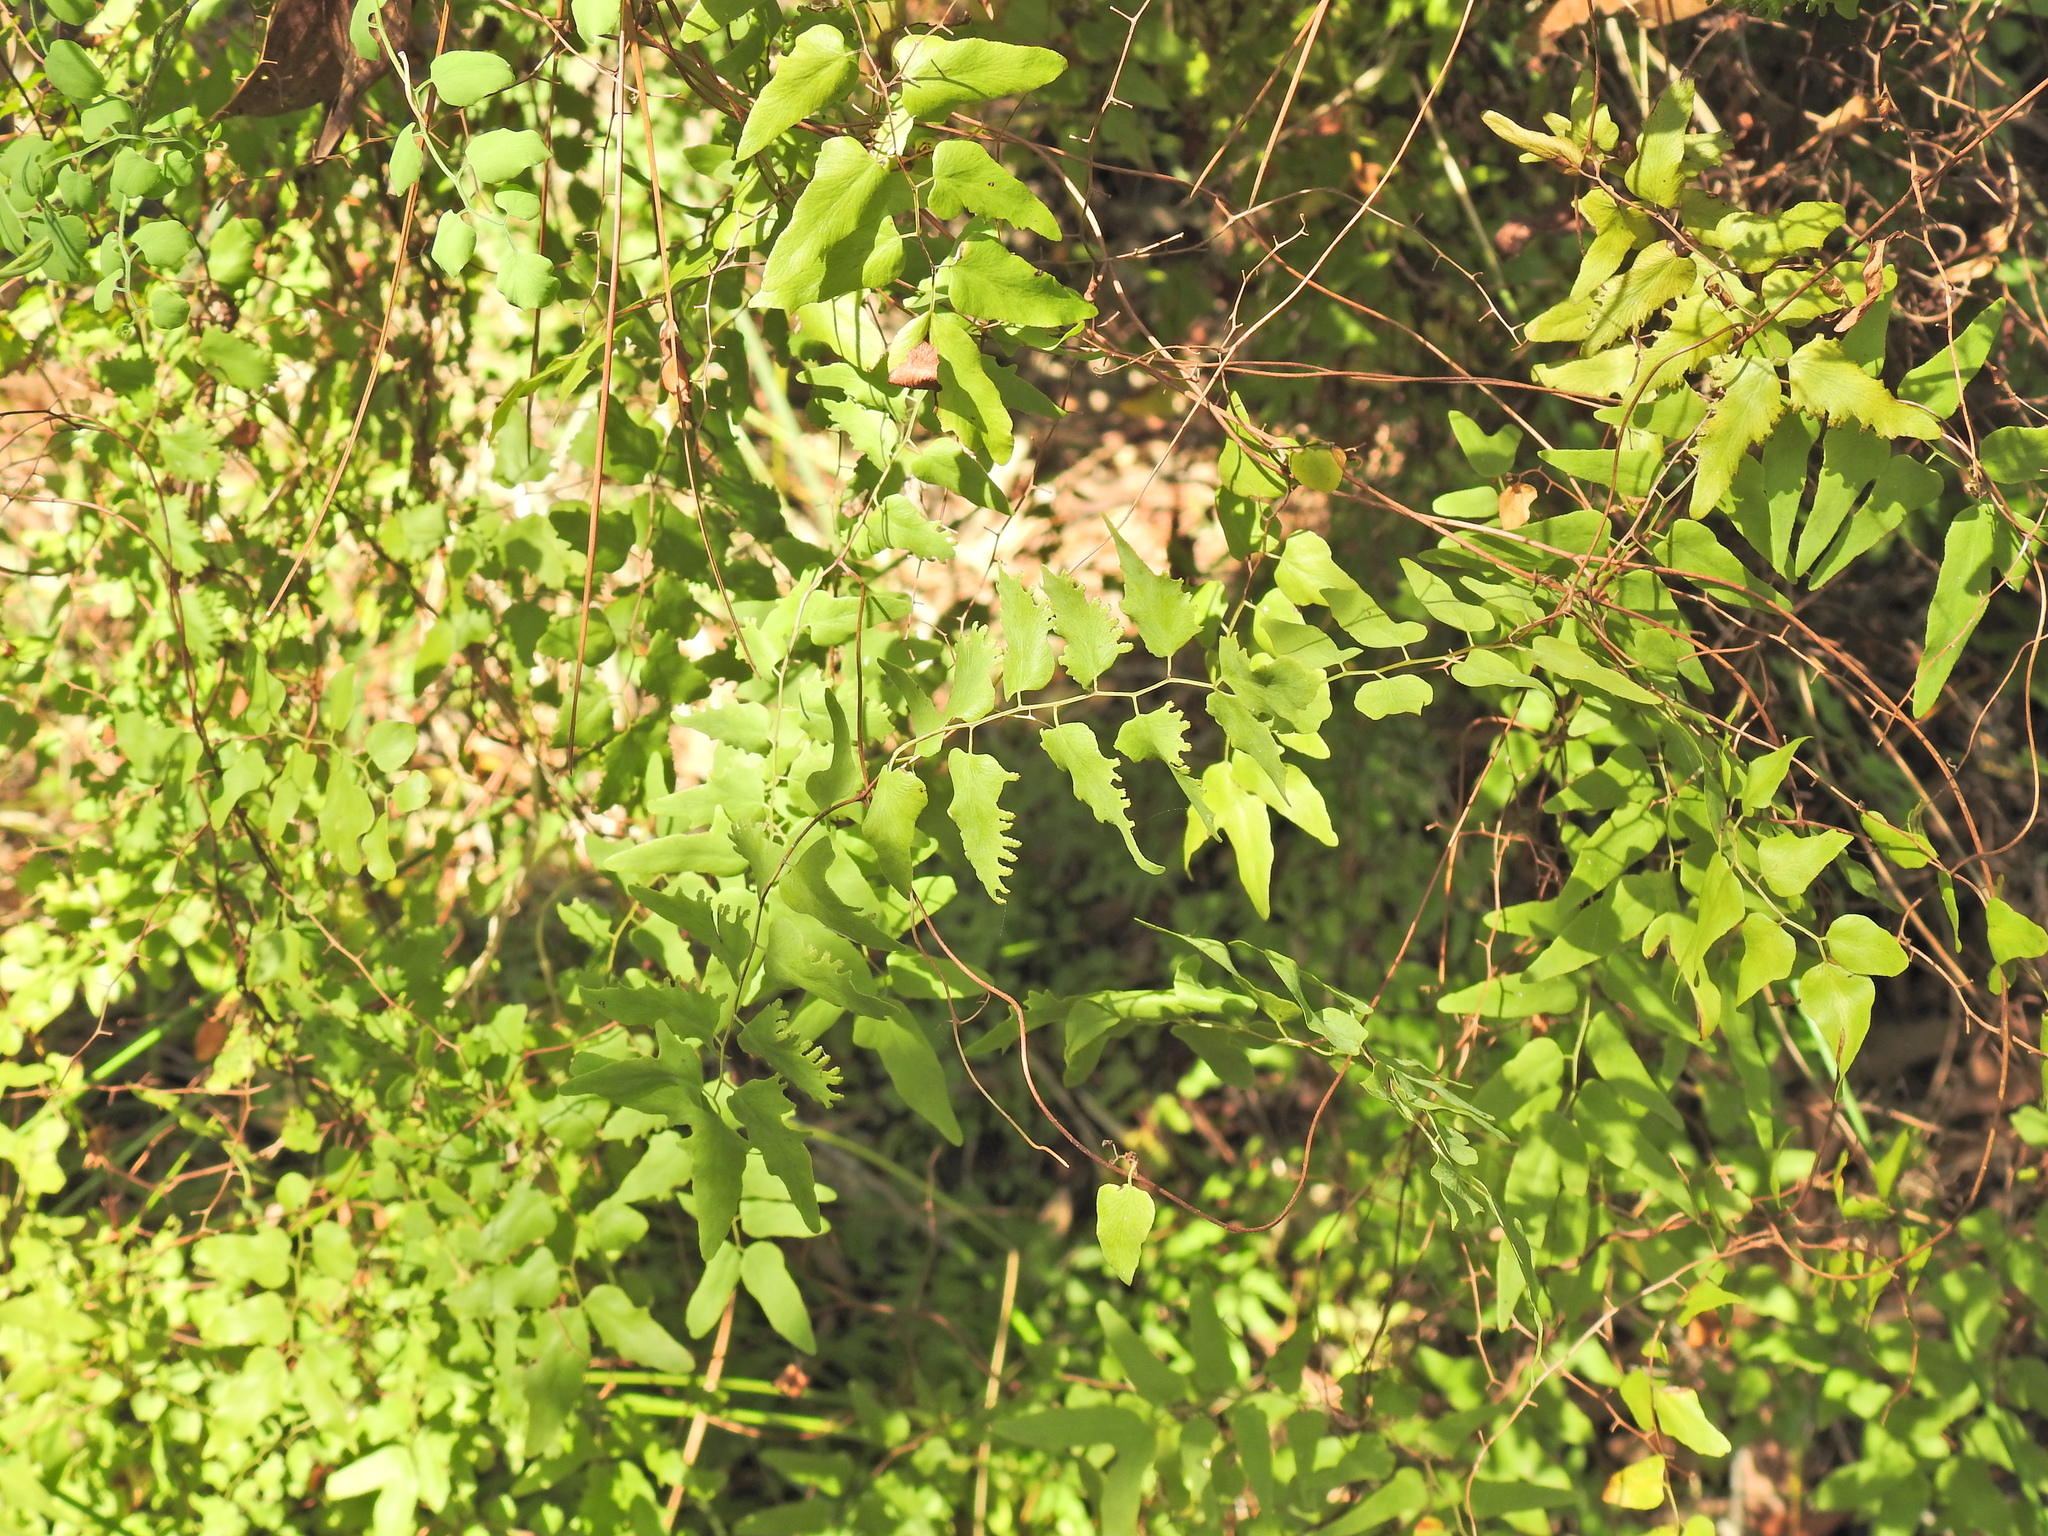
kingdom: Plantae
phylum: Tracheophyta
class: Polypodiopsida
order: Schizaeales
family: Lygodiaceae
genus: Lygodium
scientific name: Lygodium microphyllum
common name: Small-leaf climbing fern
